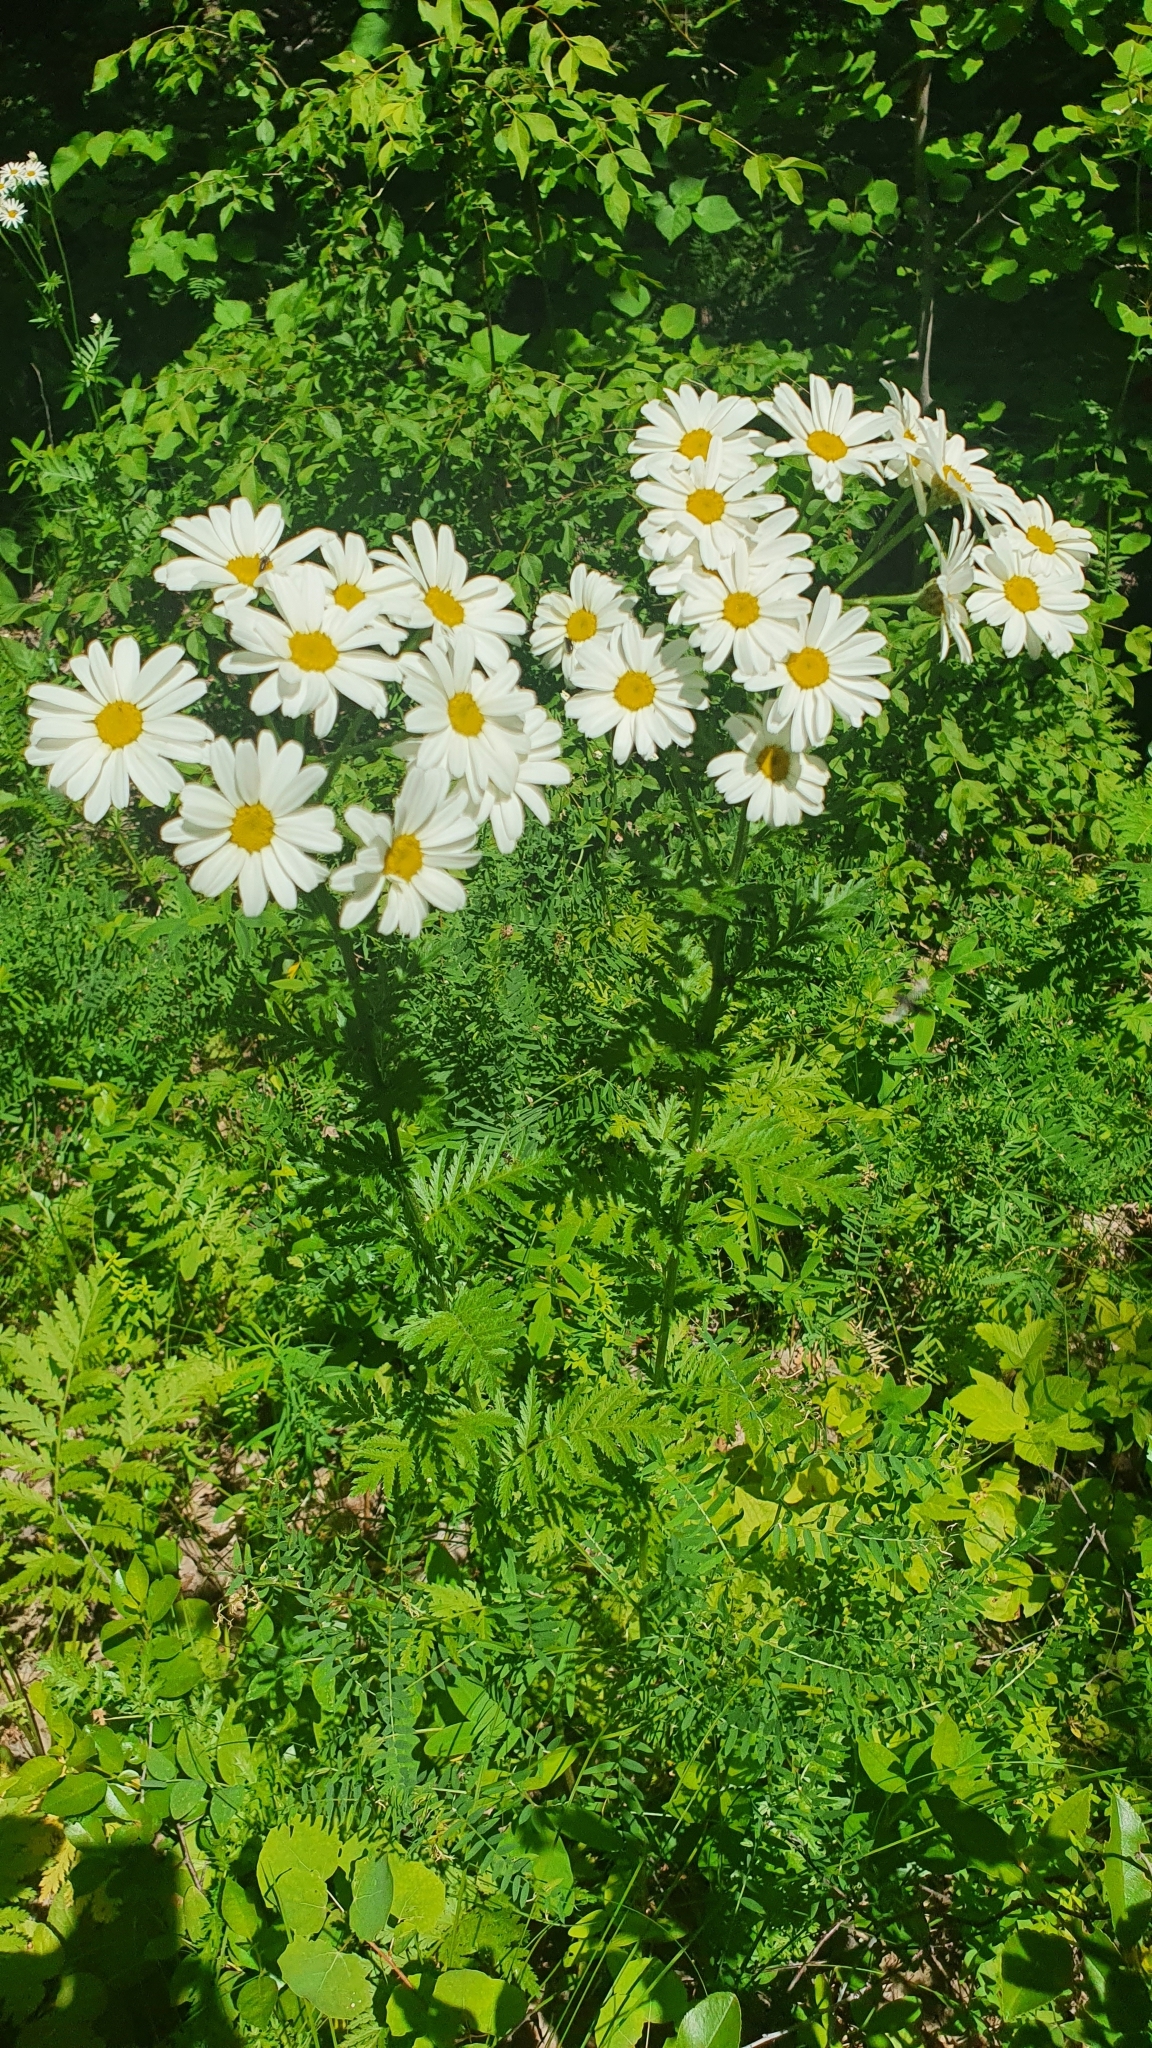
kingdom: Plantae
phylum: Tracheophyta
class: Magnoliopsida
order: Asterales
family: Asteraceae
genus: Tanacetum
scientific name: Tanacetum corymbosum
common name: Scentless feverfew
